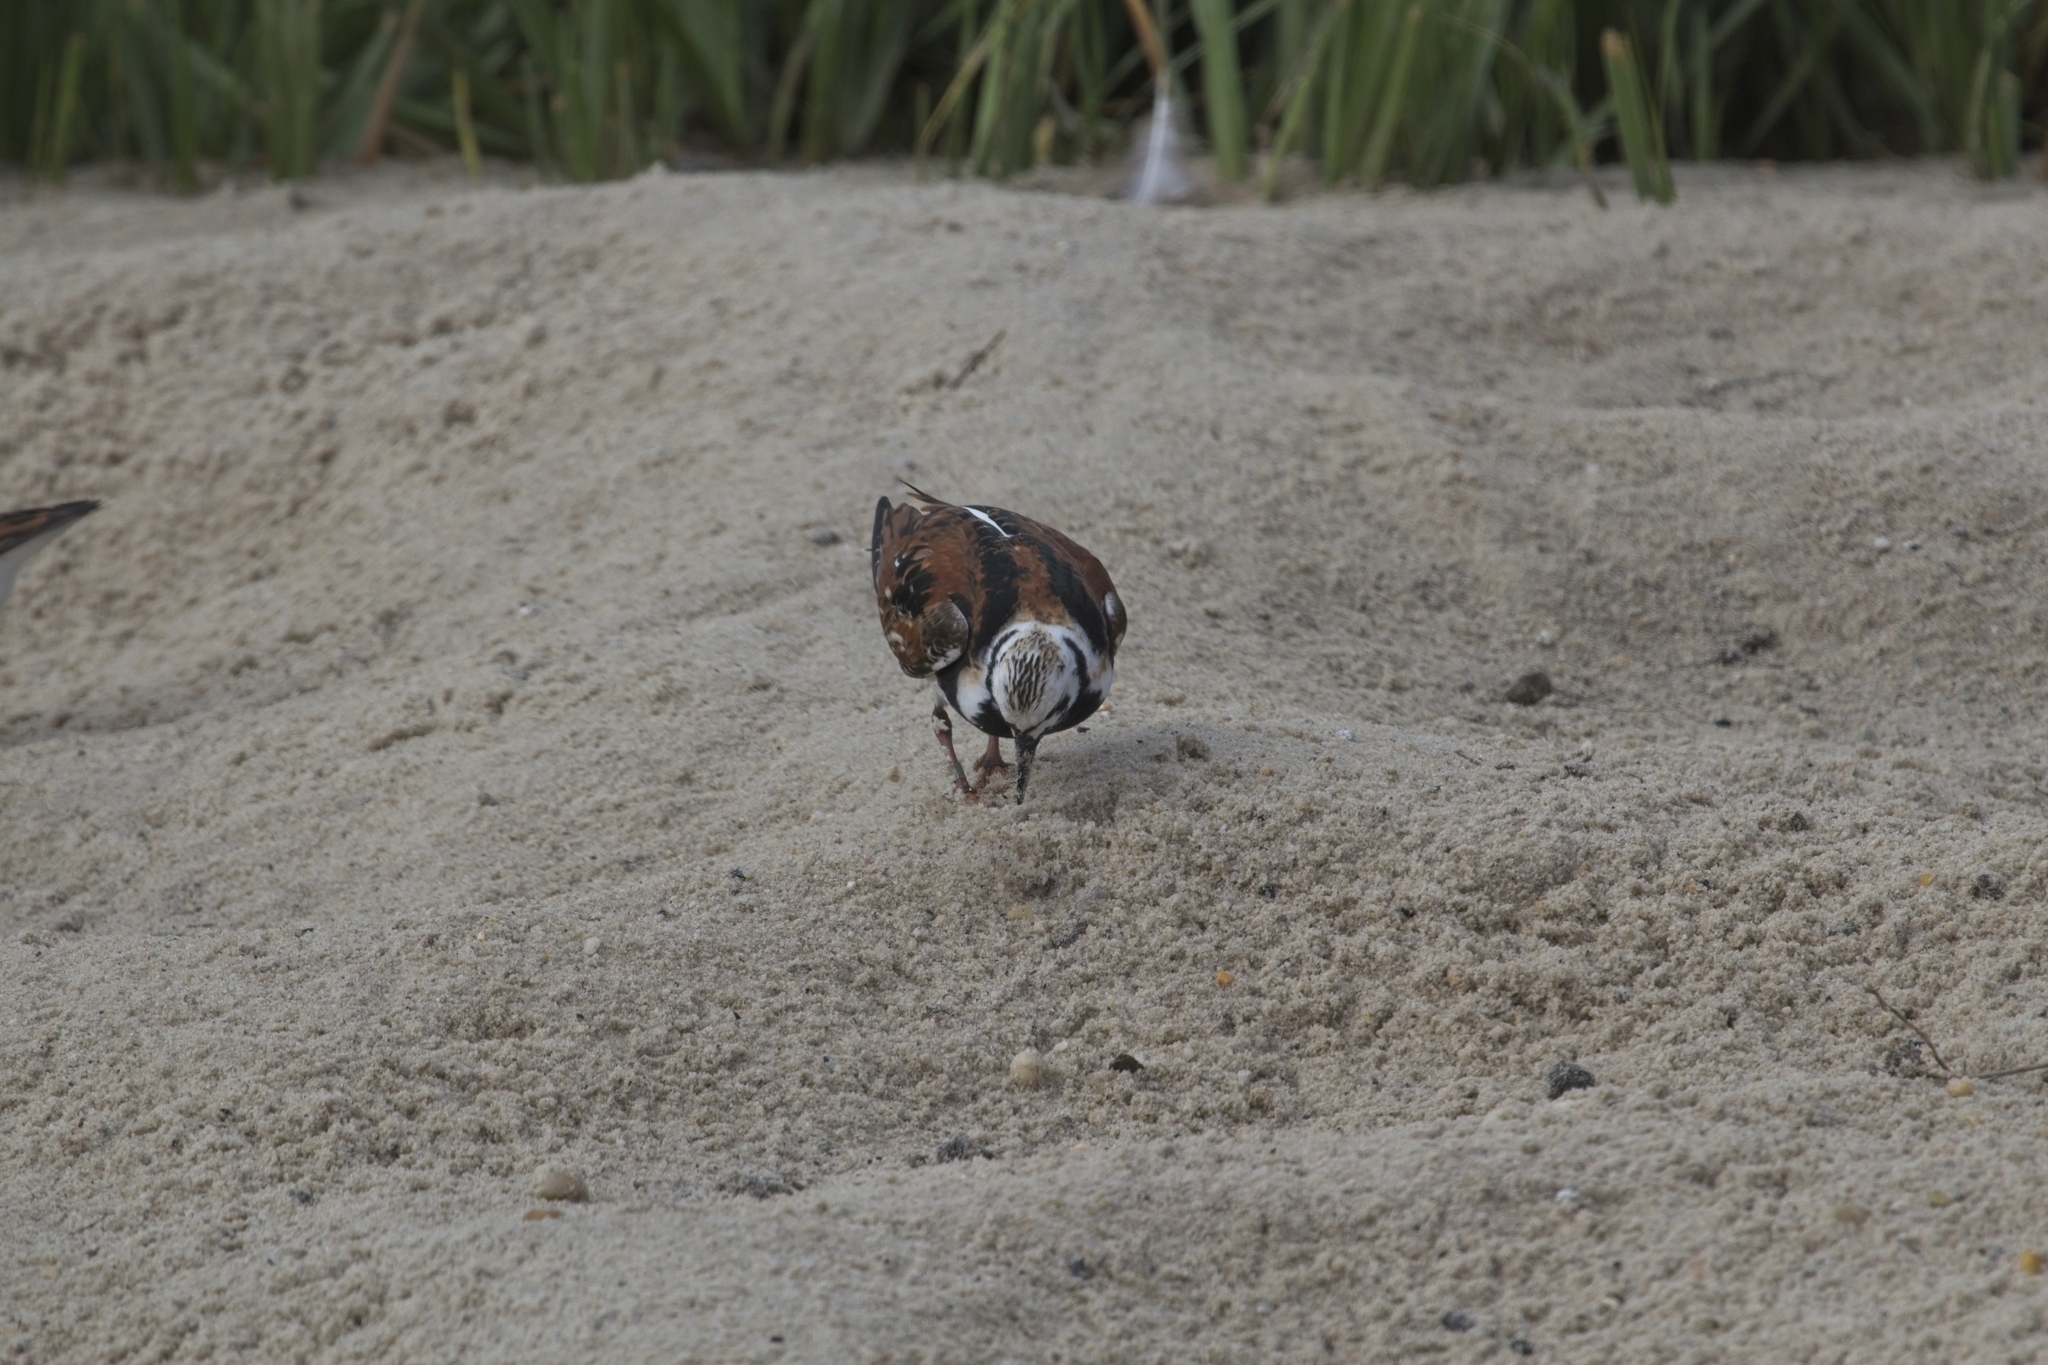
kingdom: Animalia
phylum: Chordata
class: Aves
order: Charadriiformes
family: Scolopacidae
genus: Arenaria
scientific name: Arenaria interpres
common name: Ruddy turnstone
